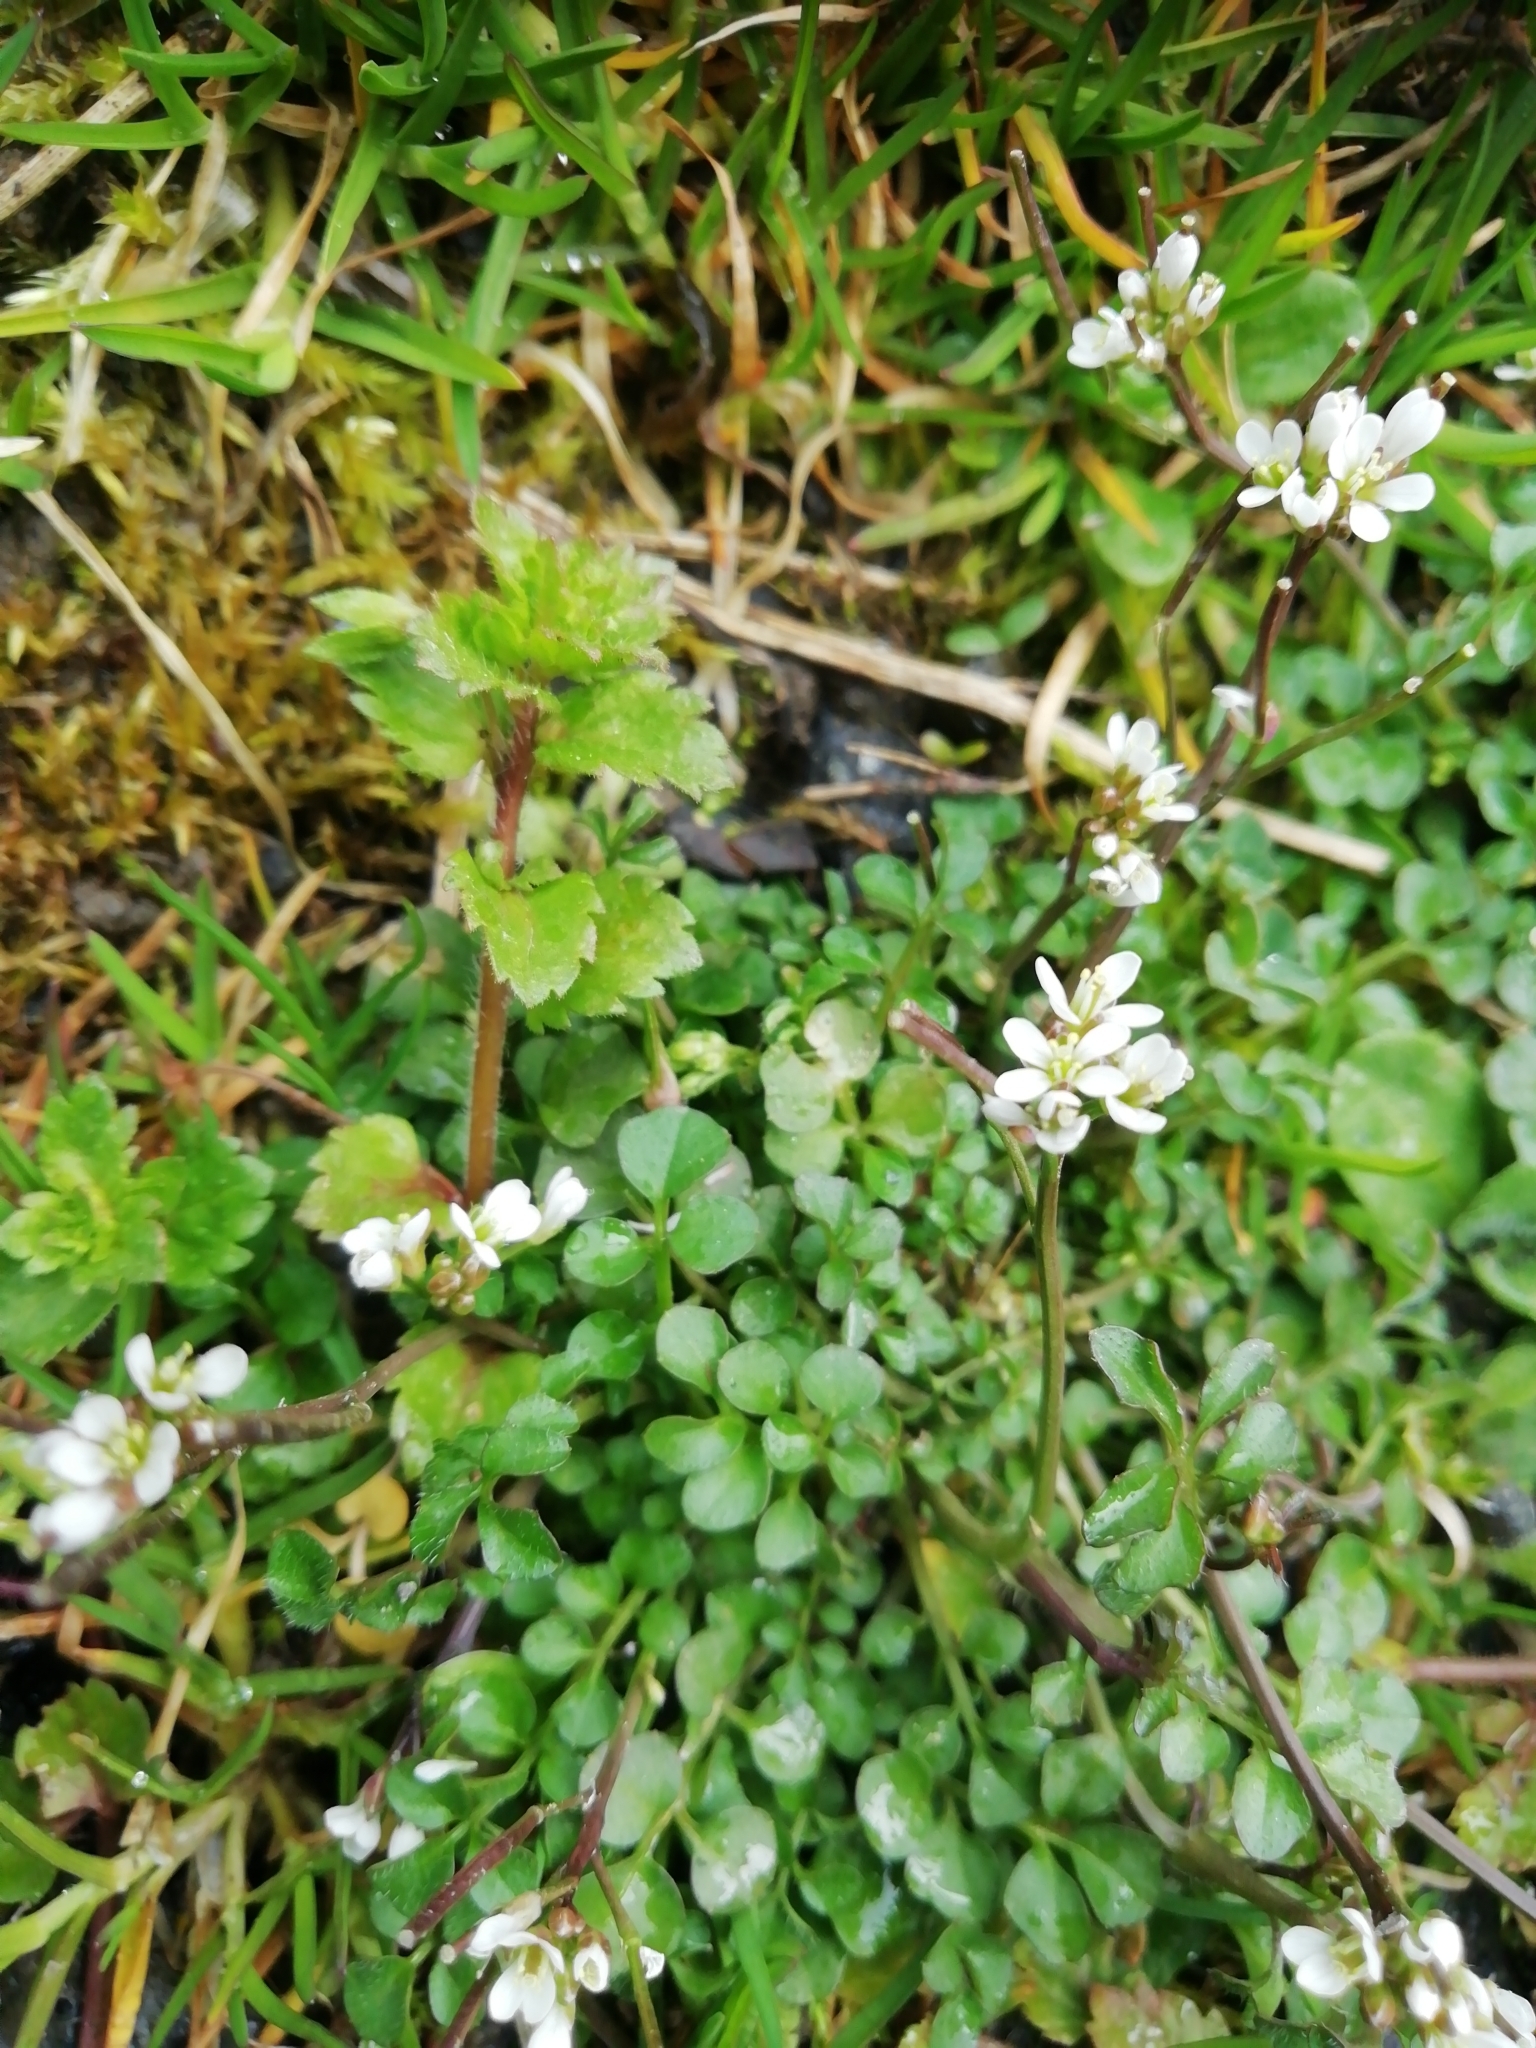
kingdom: Plantae
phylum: Tracheophyta
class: Magnoliopsida
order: Brassicales
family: Brassicaceae
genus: Cardamine
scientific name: Cardamine hirsuta
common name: Hairy bittercress
